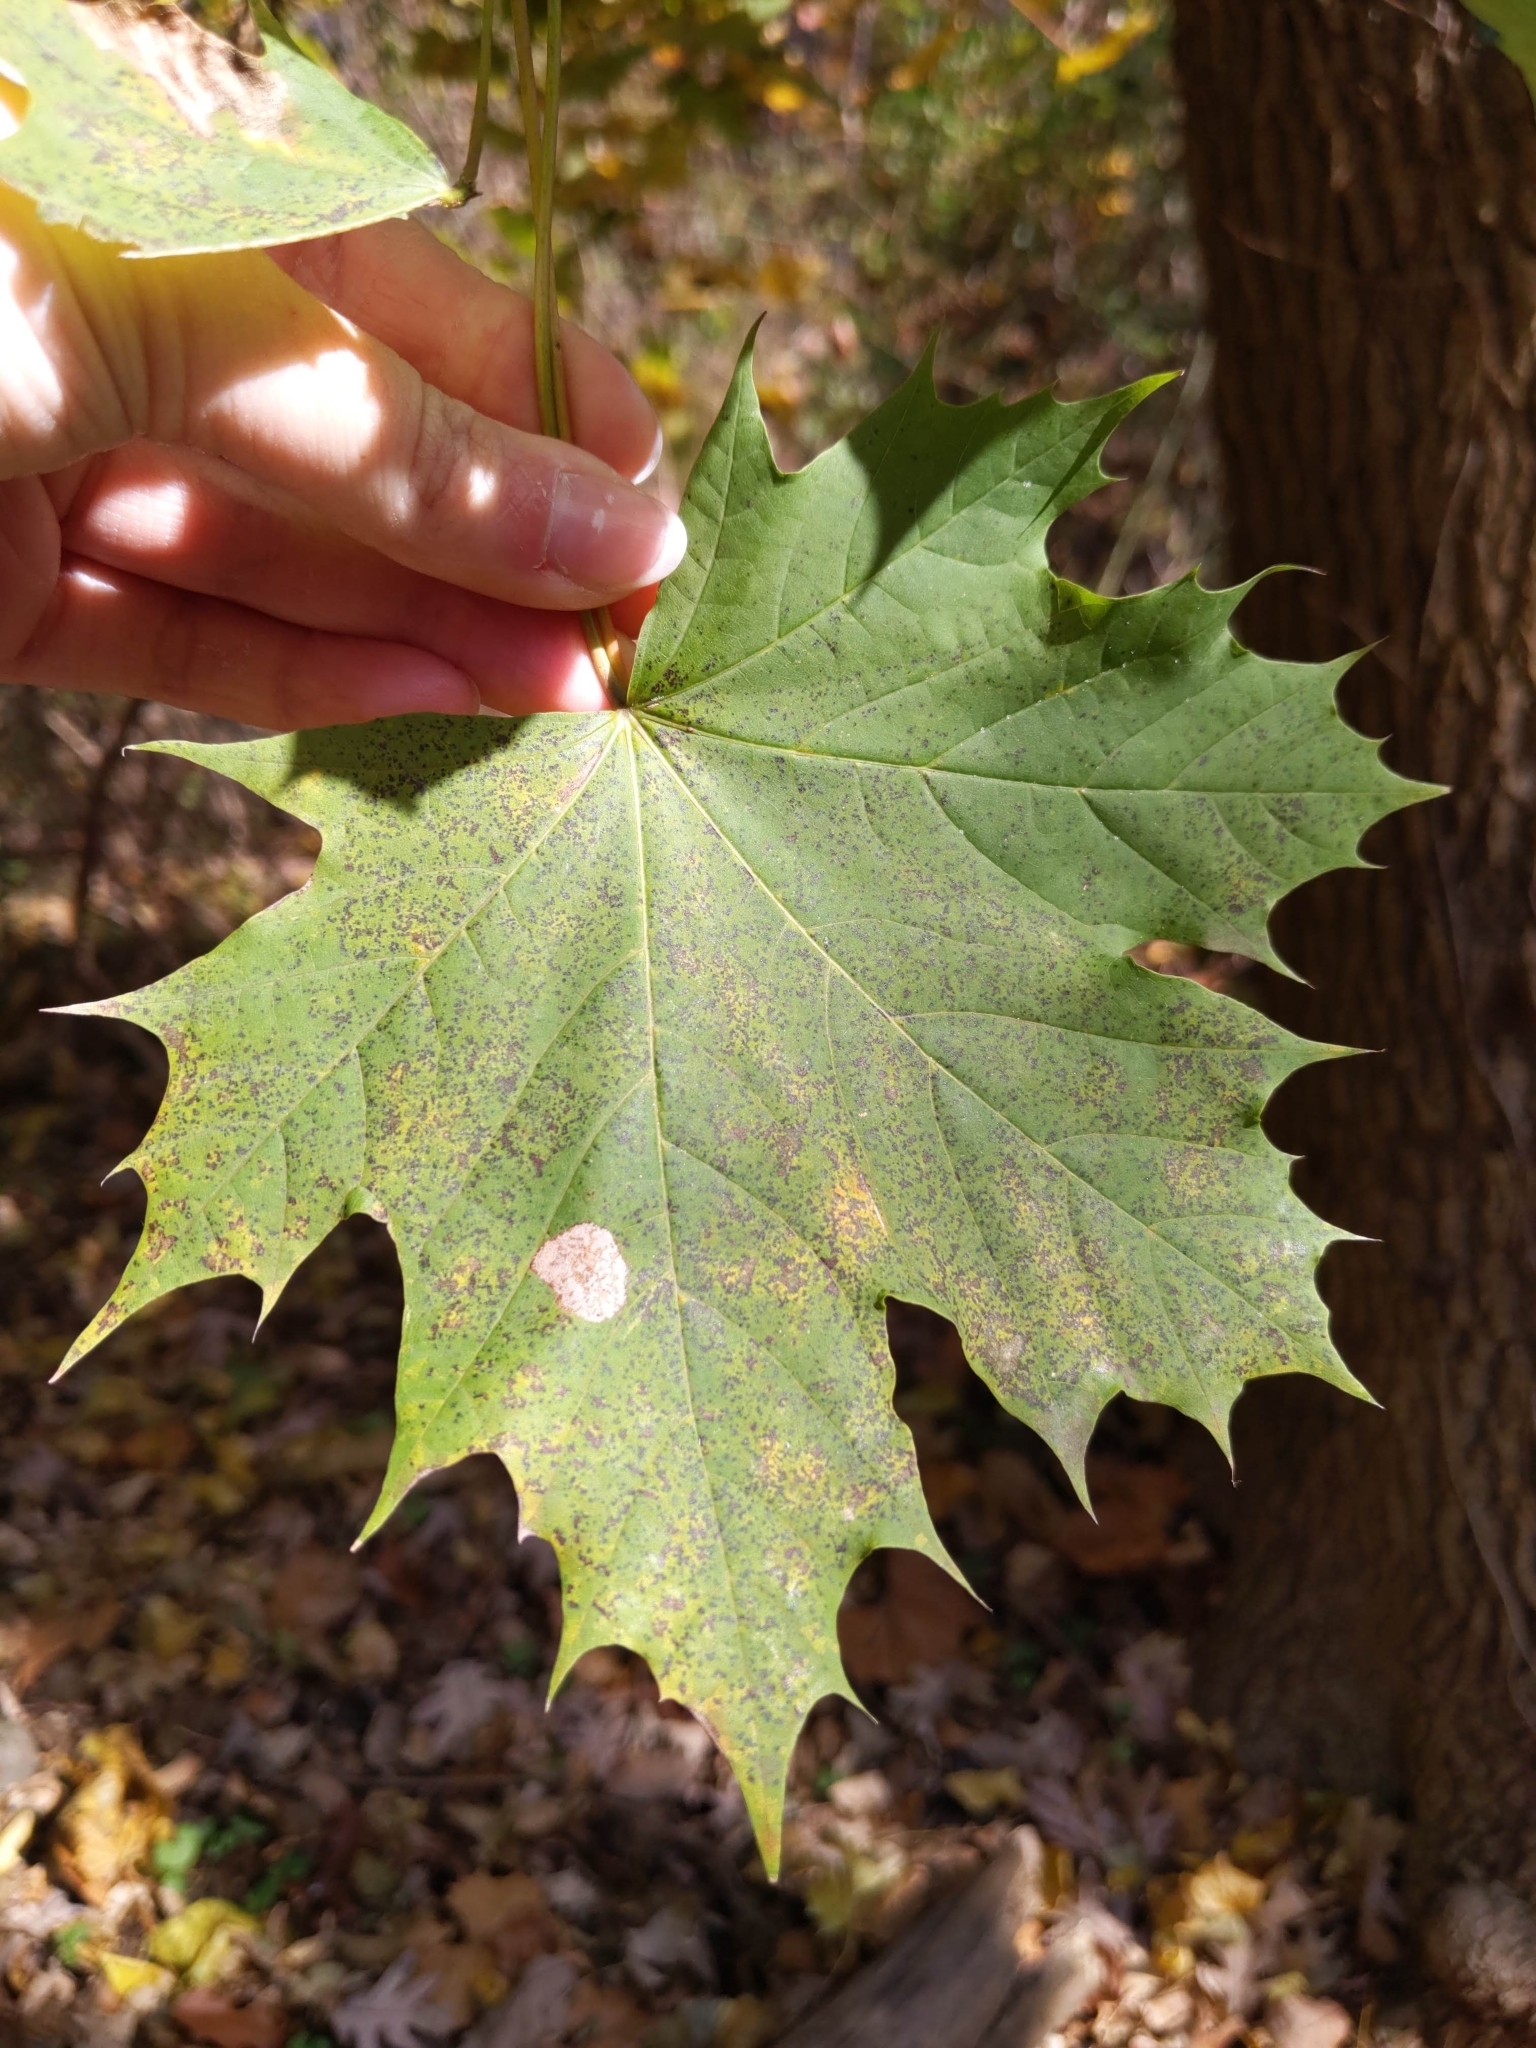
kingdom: Plantae
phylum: Tracheophyta
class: Magnoliopsida
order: Sapindales
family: Sapindaceae
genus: Acer
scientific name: Acer platanoides
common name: Norway maple
